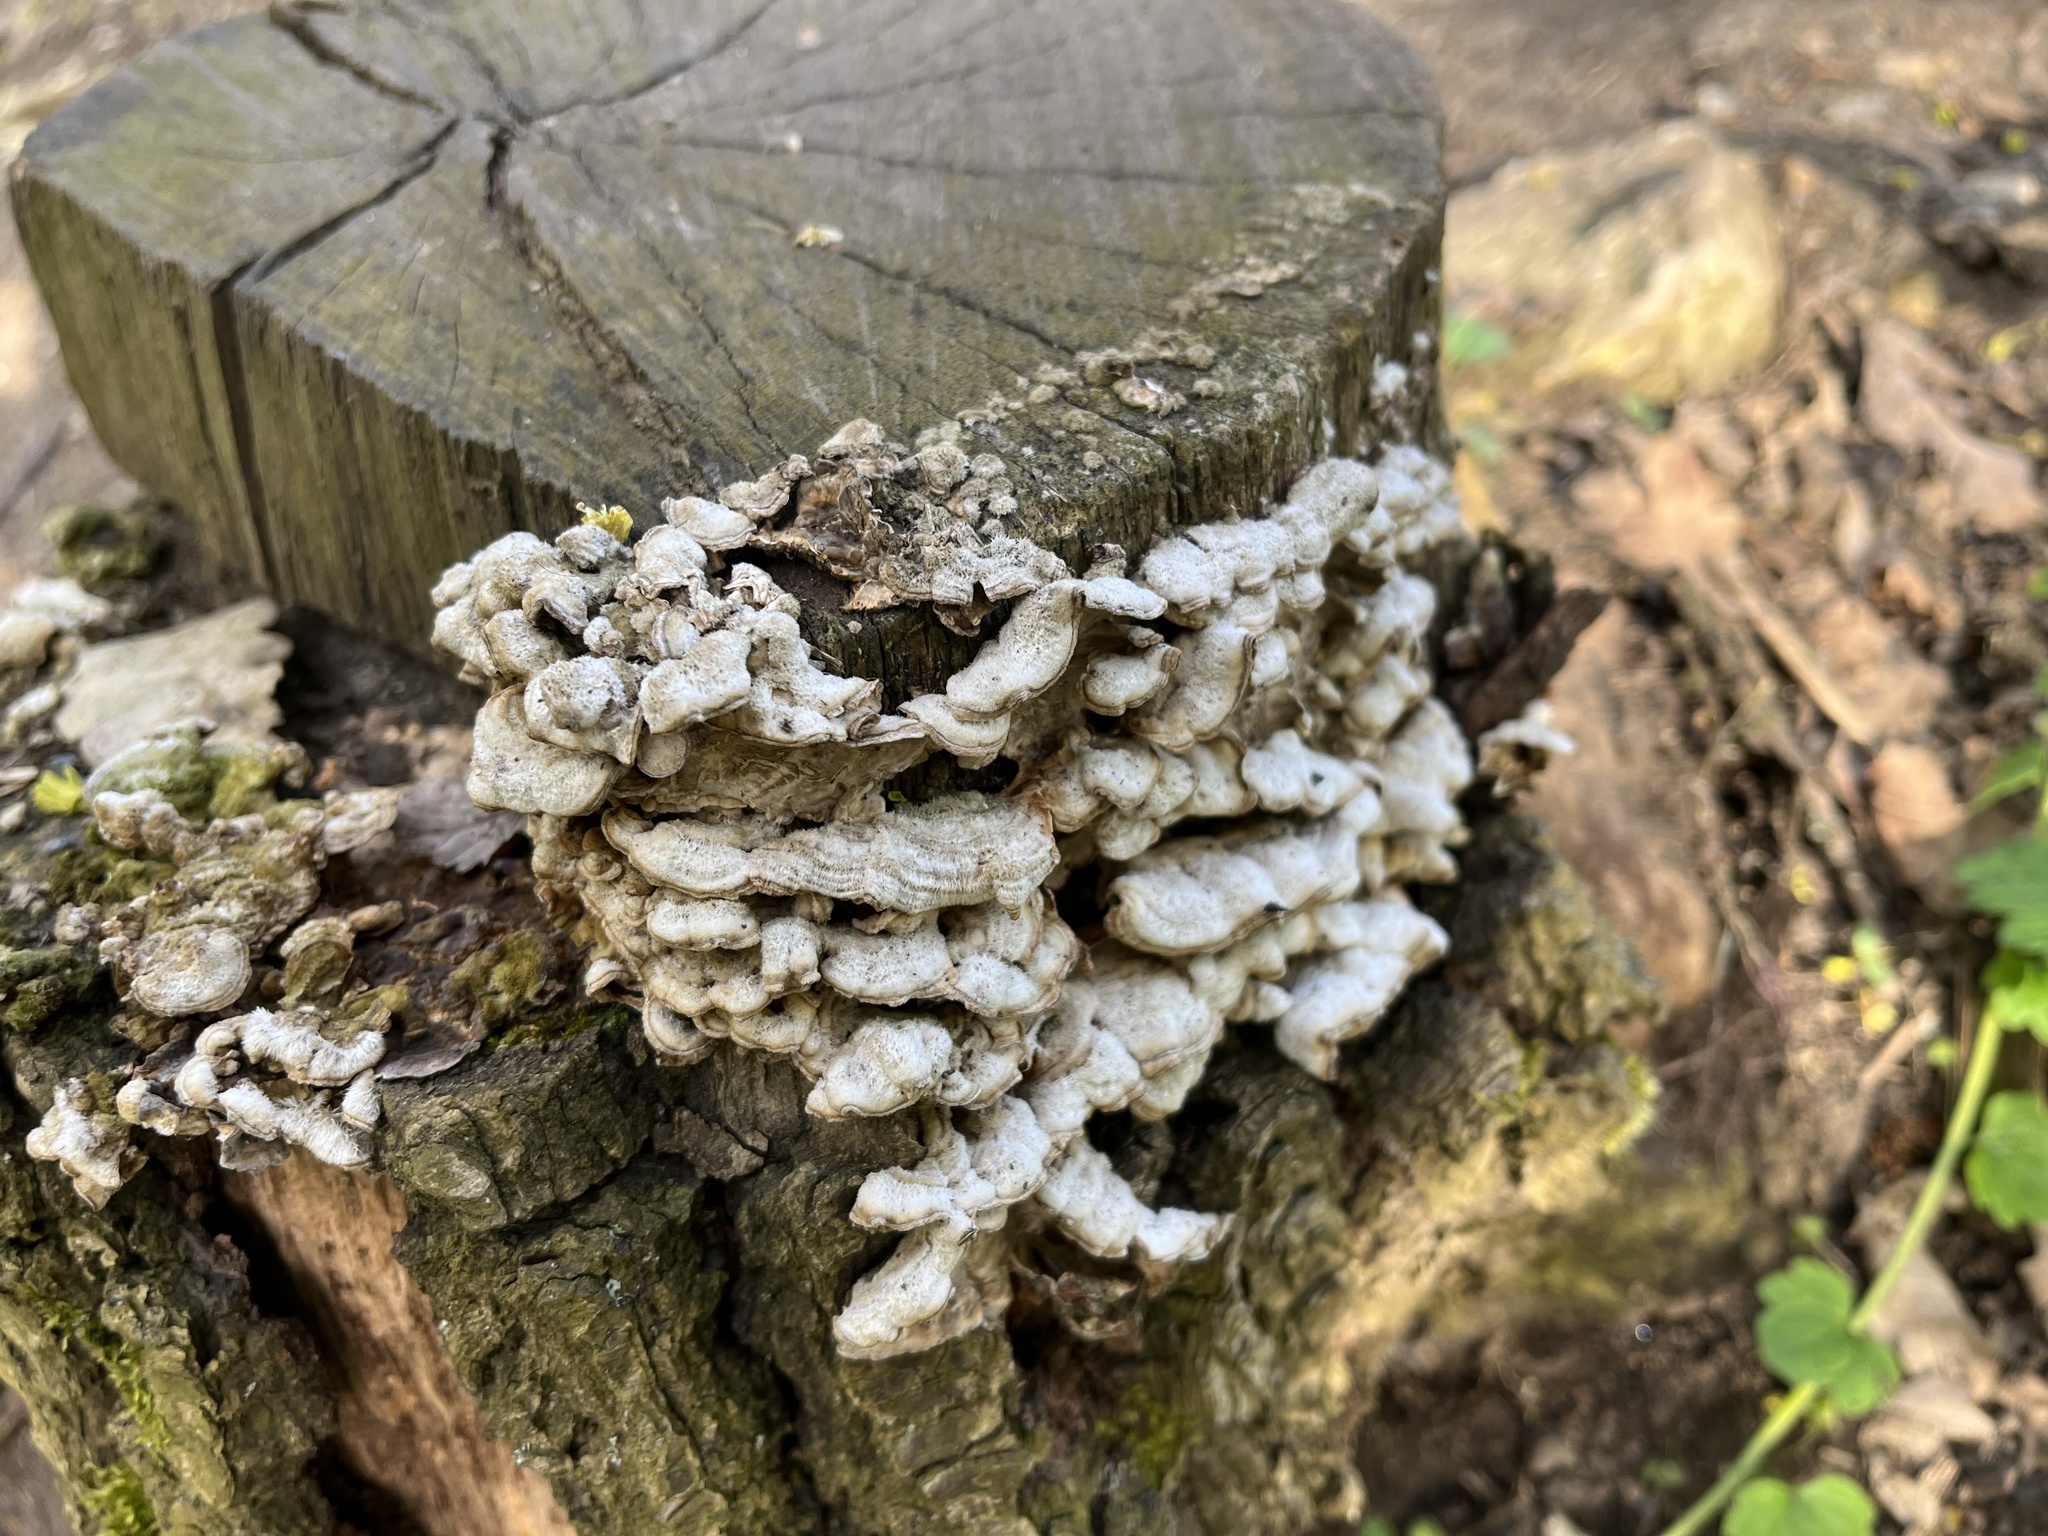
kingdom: Fungi
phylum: Basidiomycota
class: Agaricomycetes
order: Russulales
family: Stereaceae
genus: Stereum
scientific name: Stereum hirsutum
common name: Hairy curtain crust
